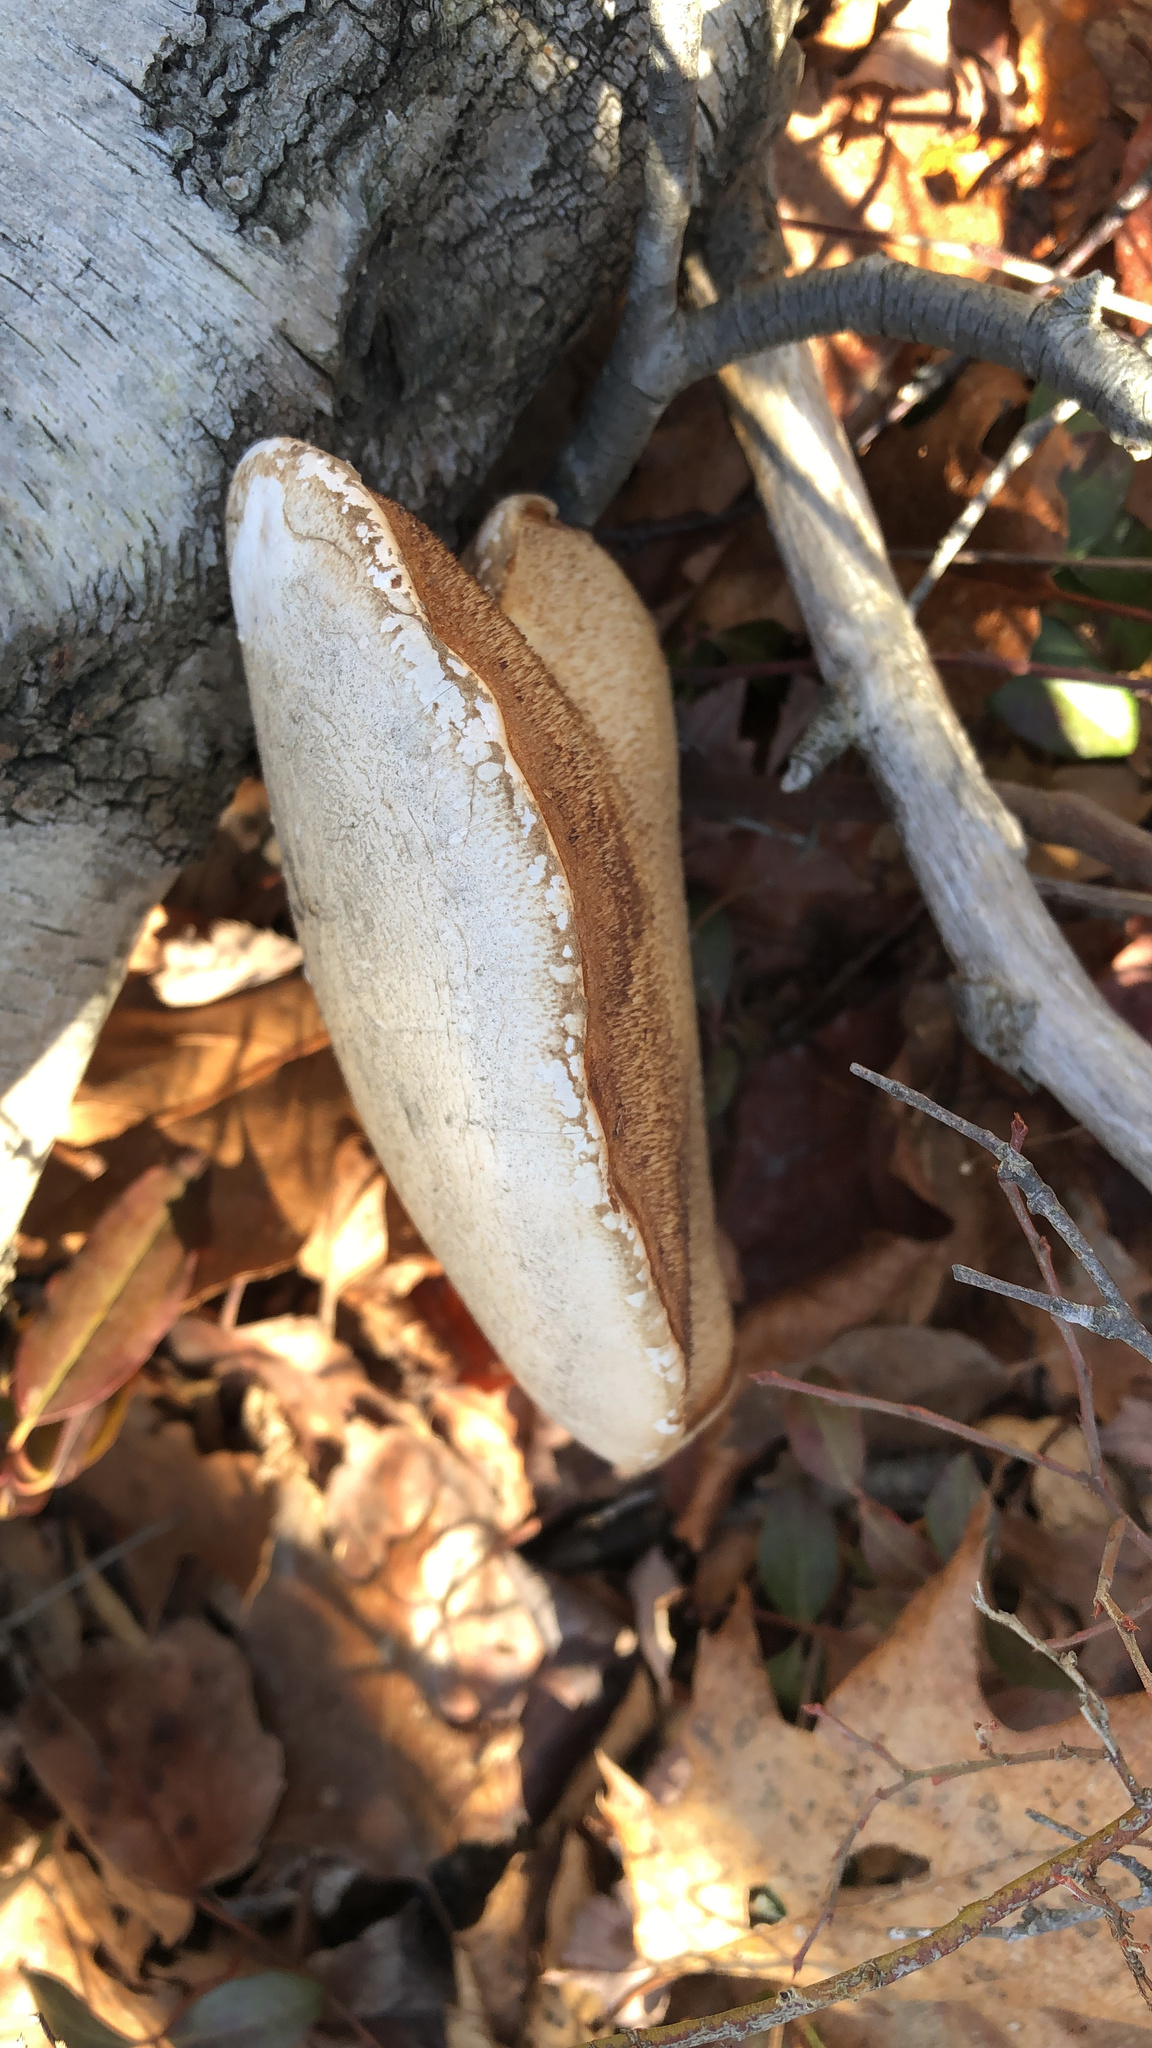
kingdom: Fungi
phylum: Basidiomycota
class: Agaricomycetes
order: Polyporales
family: Fomitopsidaceae
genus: Fomitopsis
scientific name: Fomitopsis betulina
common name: Birch polypore
